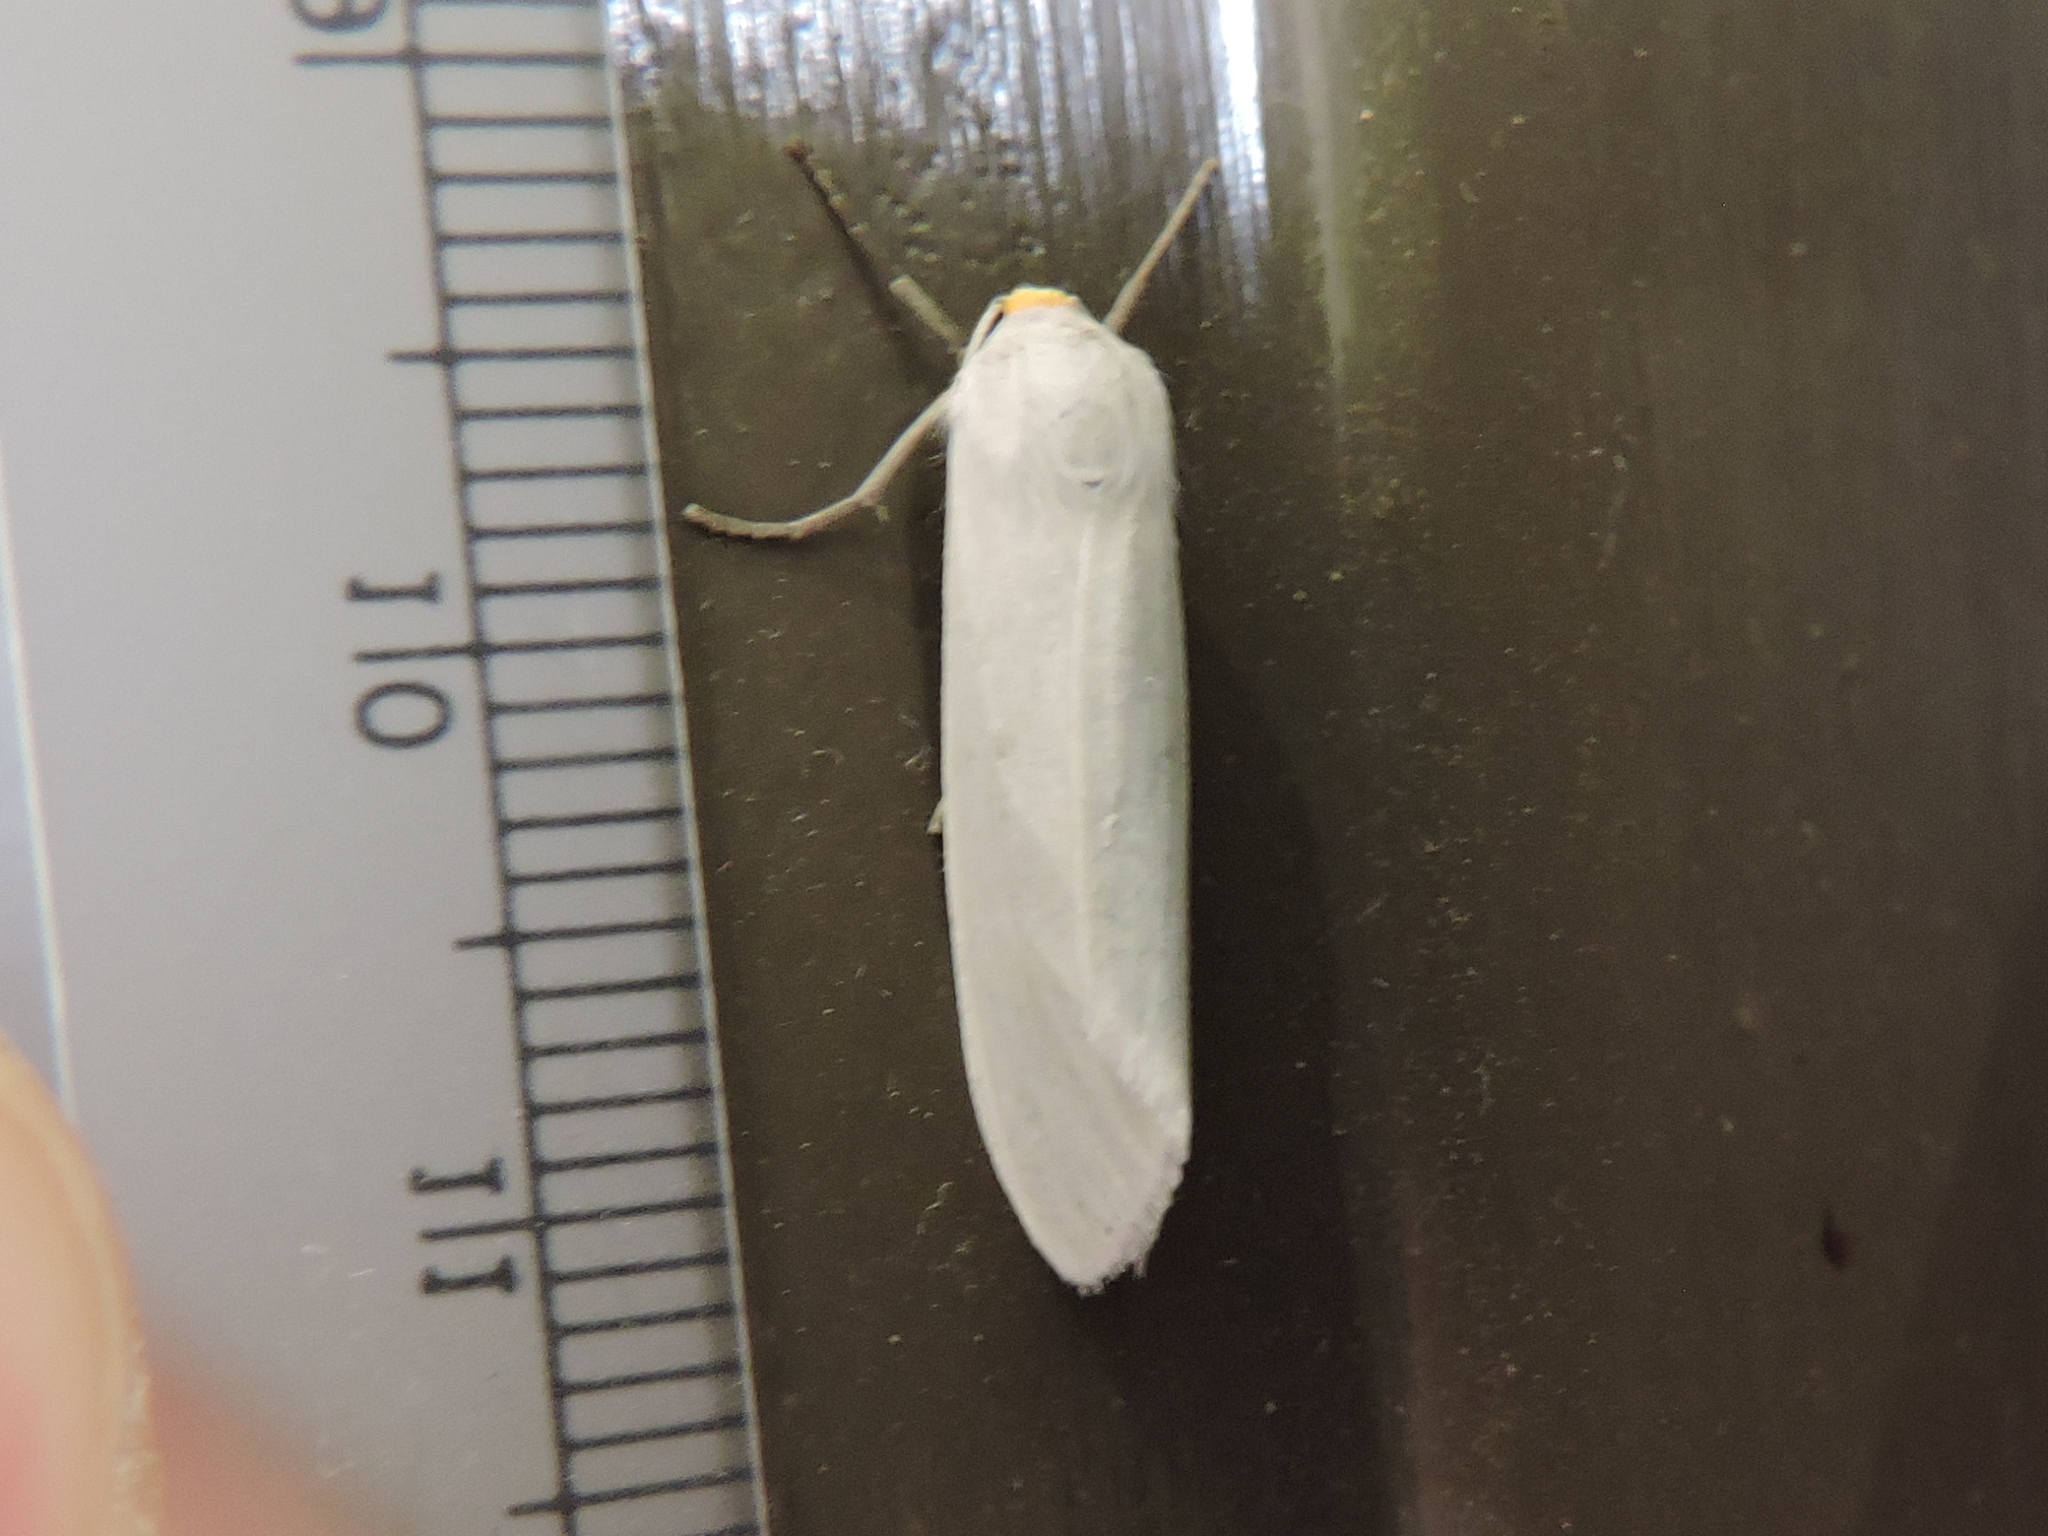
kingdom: Animalia
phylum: Arthropoda
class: Insecta
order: Lepidoptera
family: Erebidae
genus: Crambidia
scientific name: Crambidia cephalica
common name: Yellow-headed lichen moth
